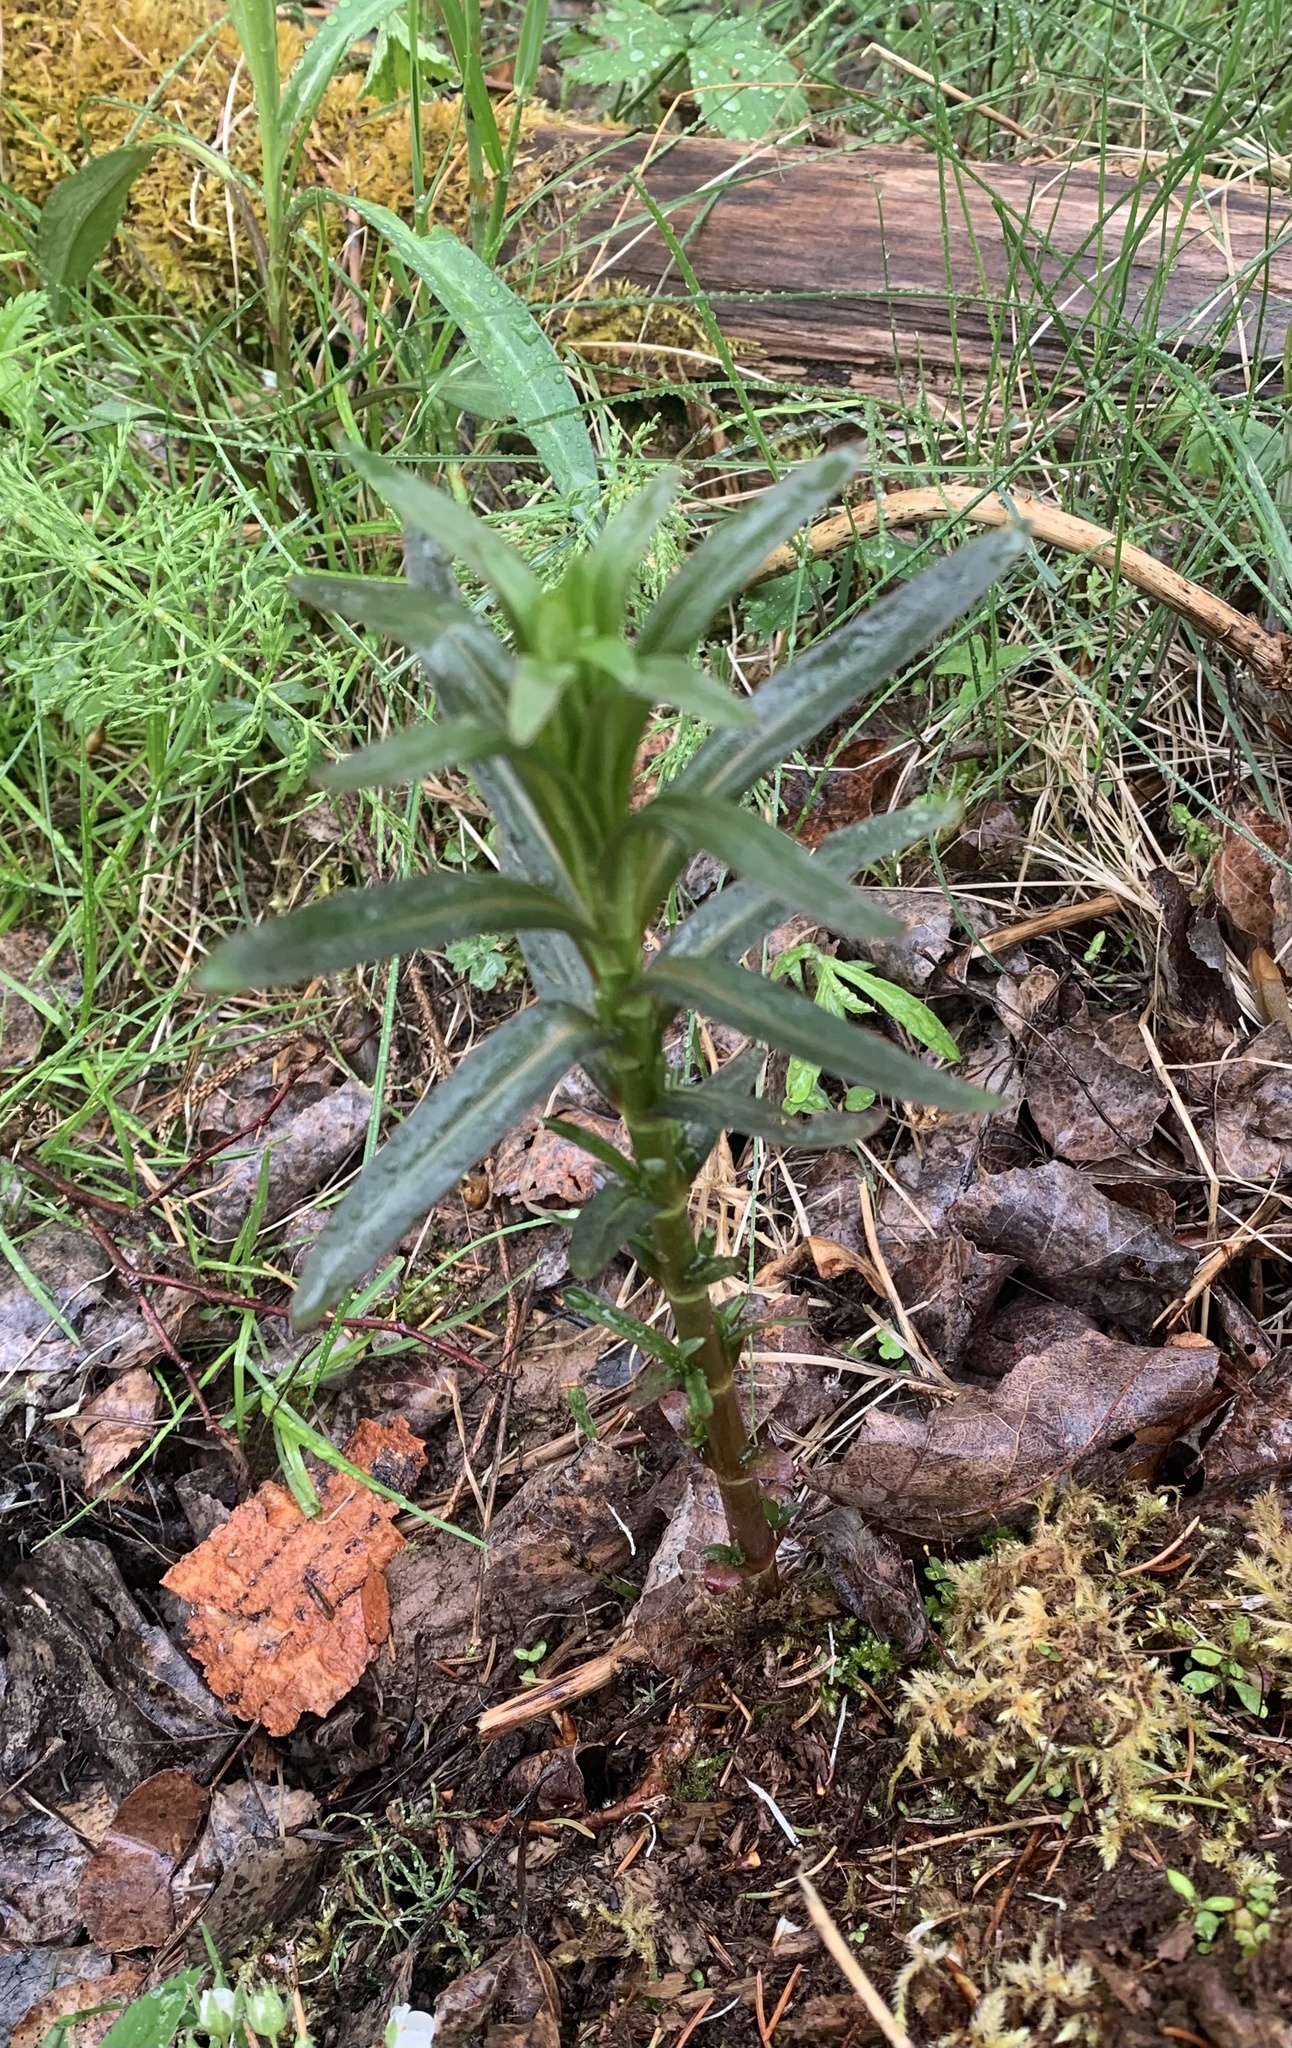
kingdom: Plantae
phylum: Tracheophyta
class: Magnoliopsida
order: Myrtales
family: Onagraceae
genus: Chamaenerion
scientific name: Chamaenerion angustifolium
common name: Fireweed
